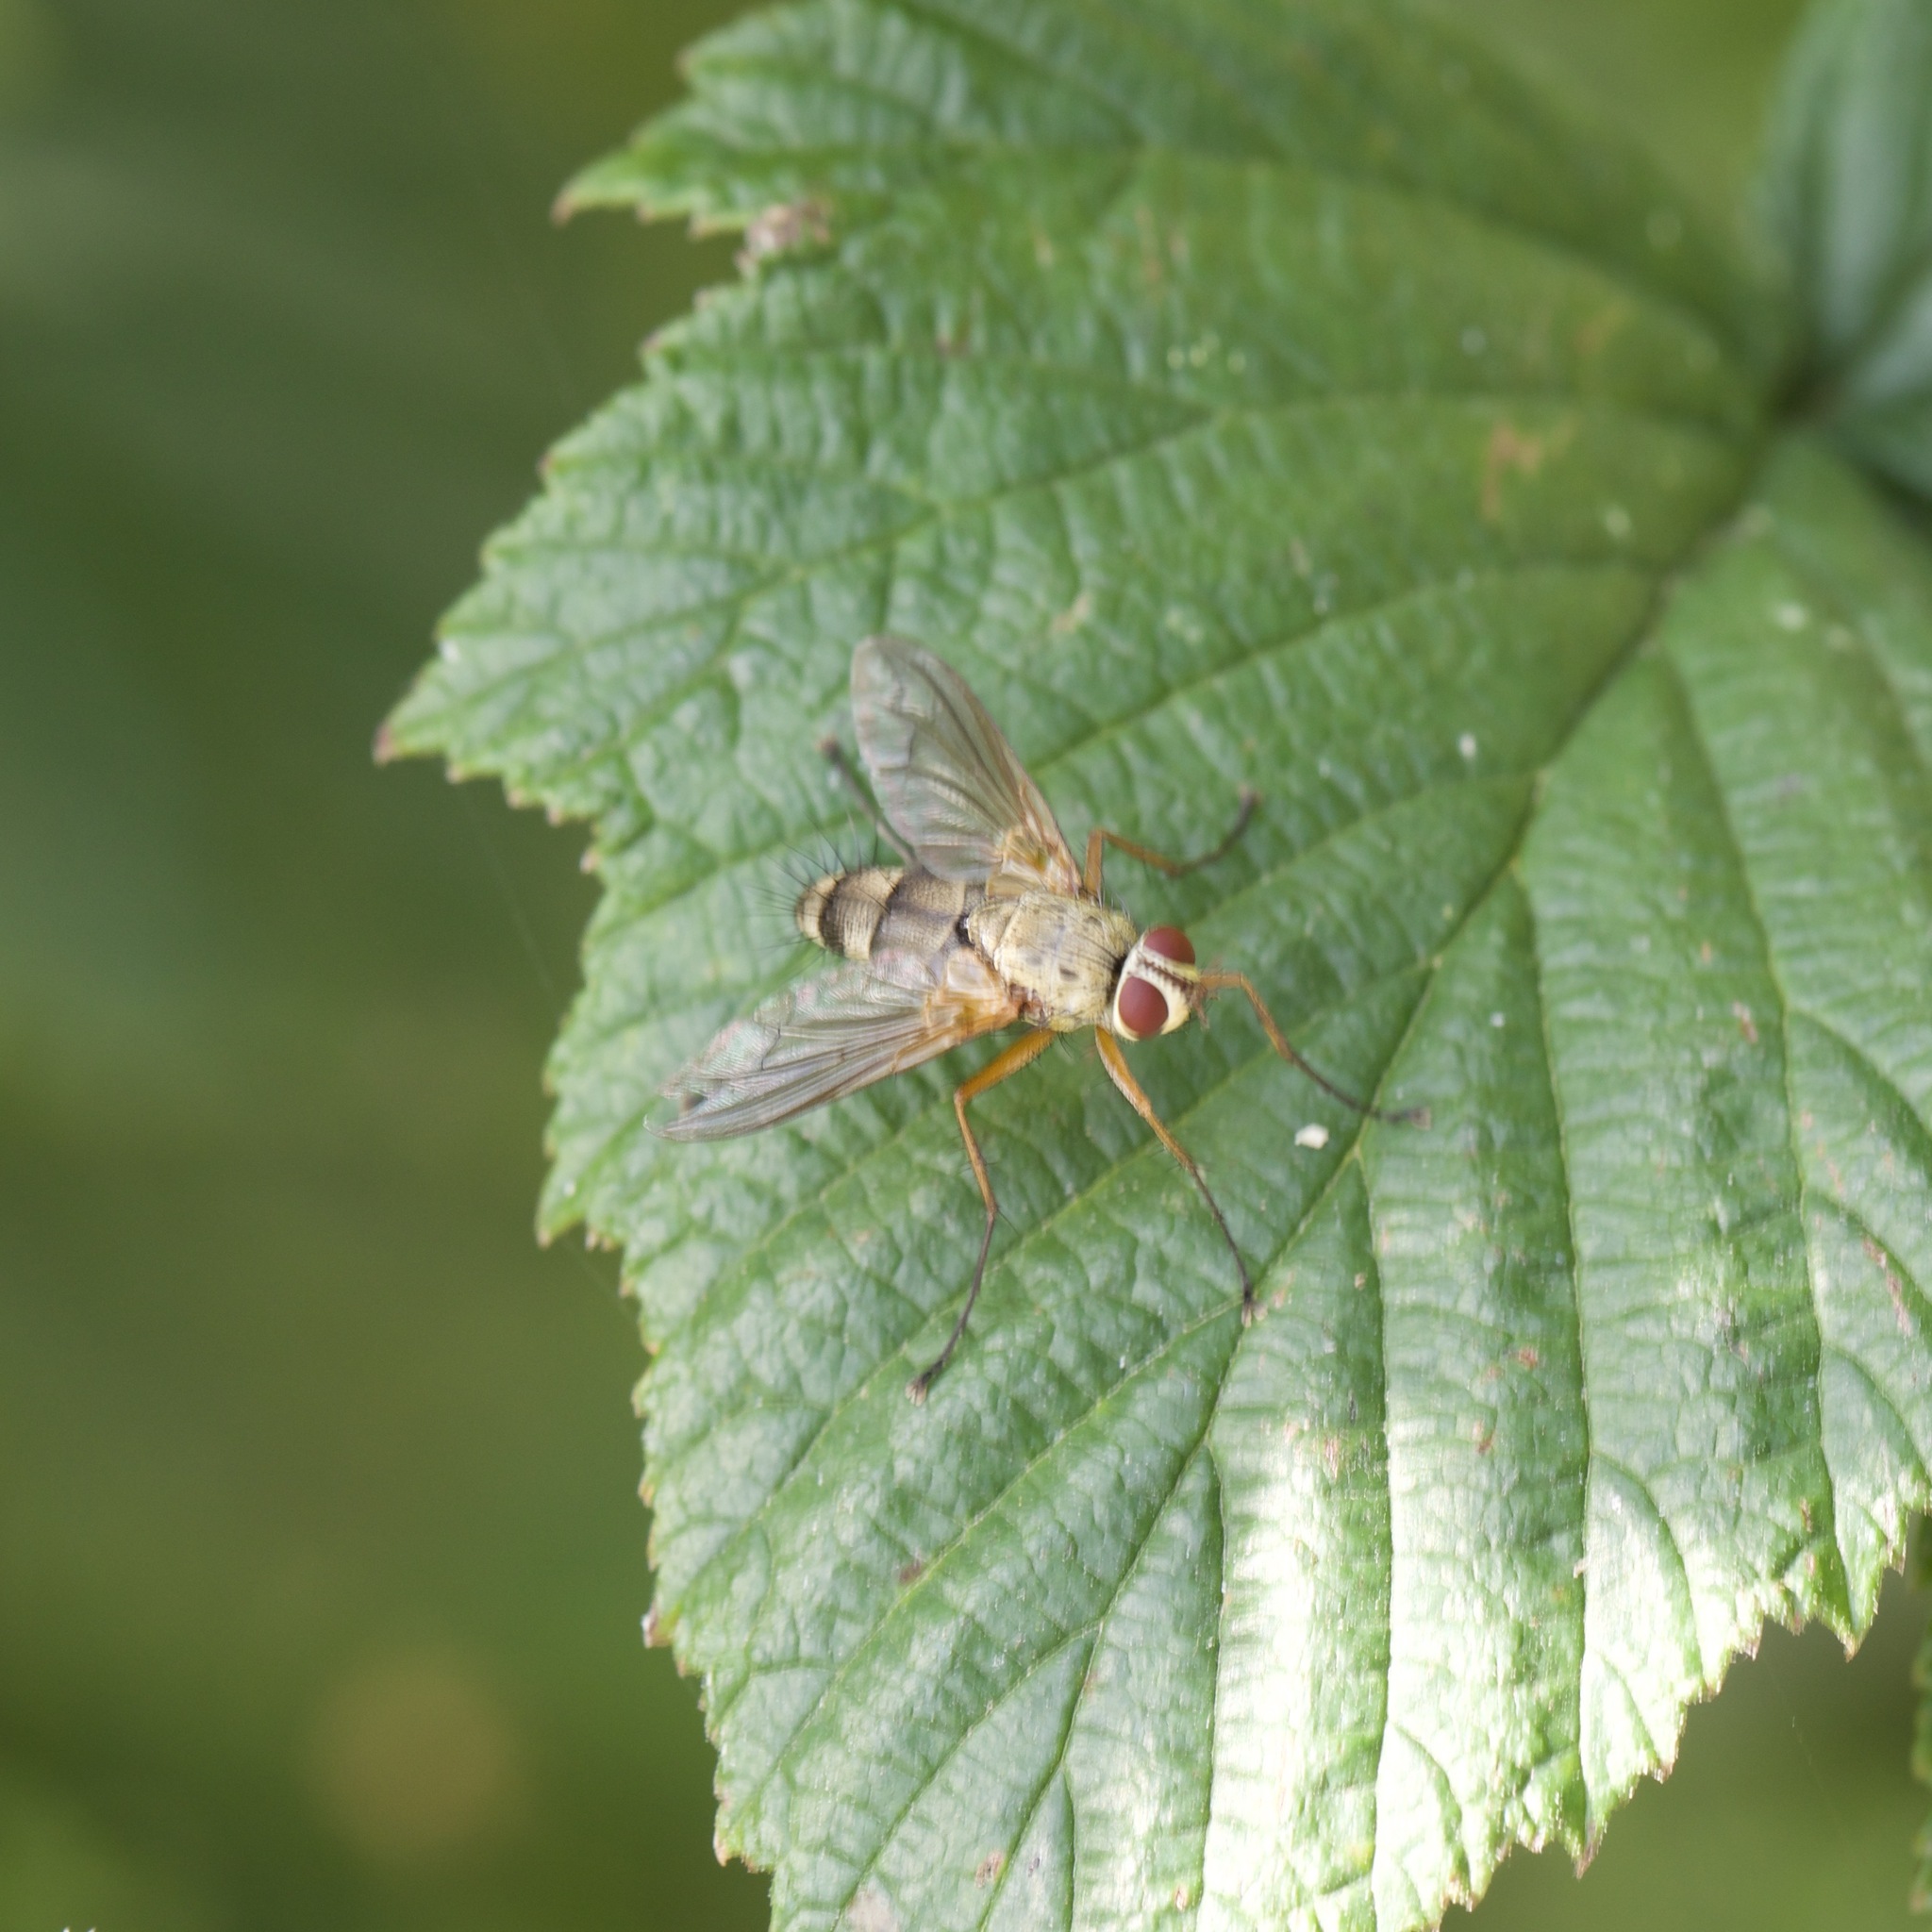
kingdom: Animalia
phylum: Arthropoda
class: Insecta
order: Diptera
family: Tachinidae
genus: Dexiosoma
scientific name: Dexiosoma caninum
